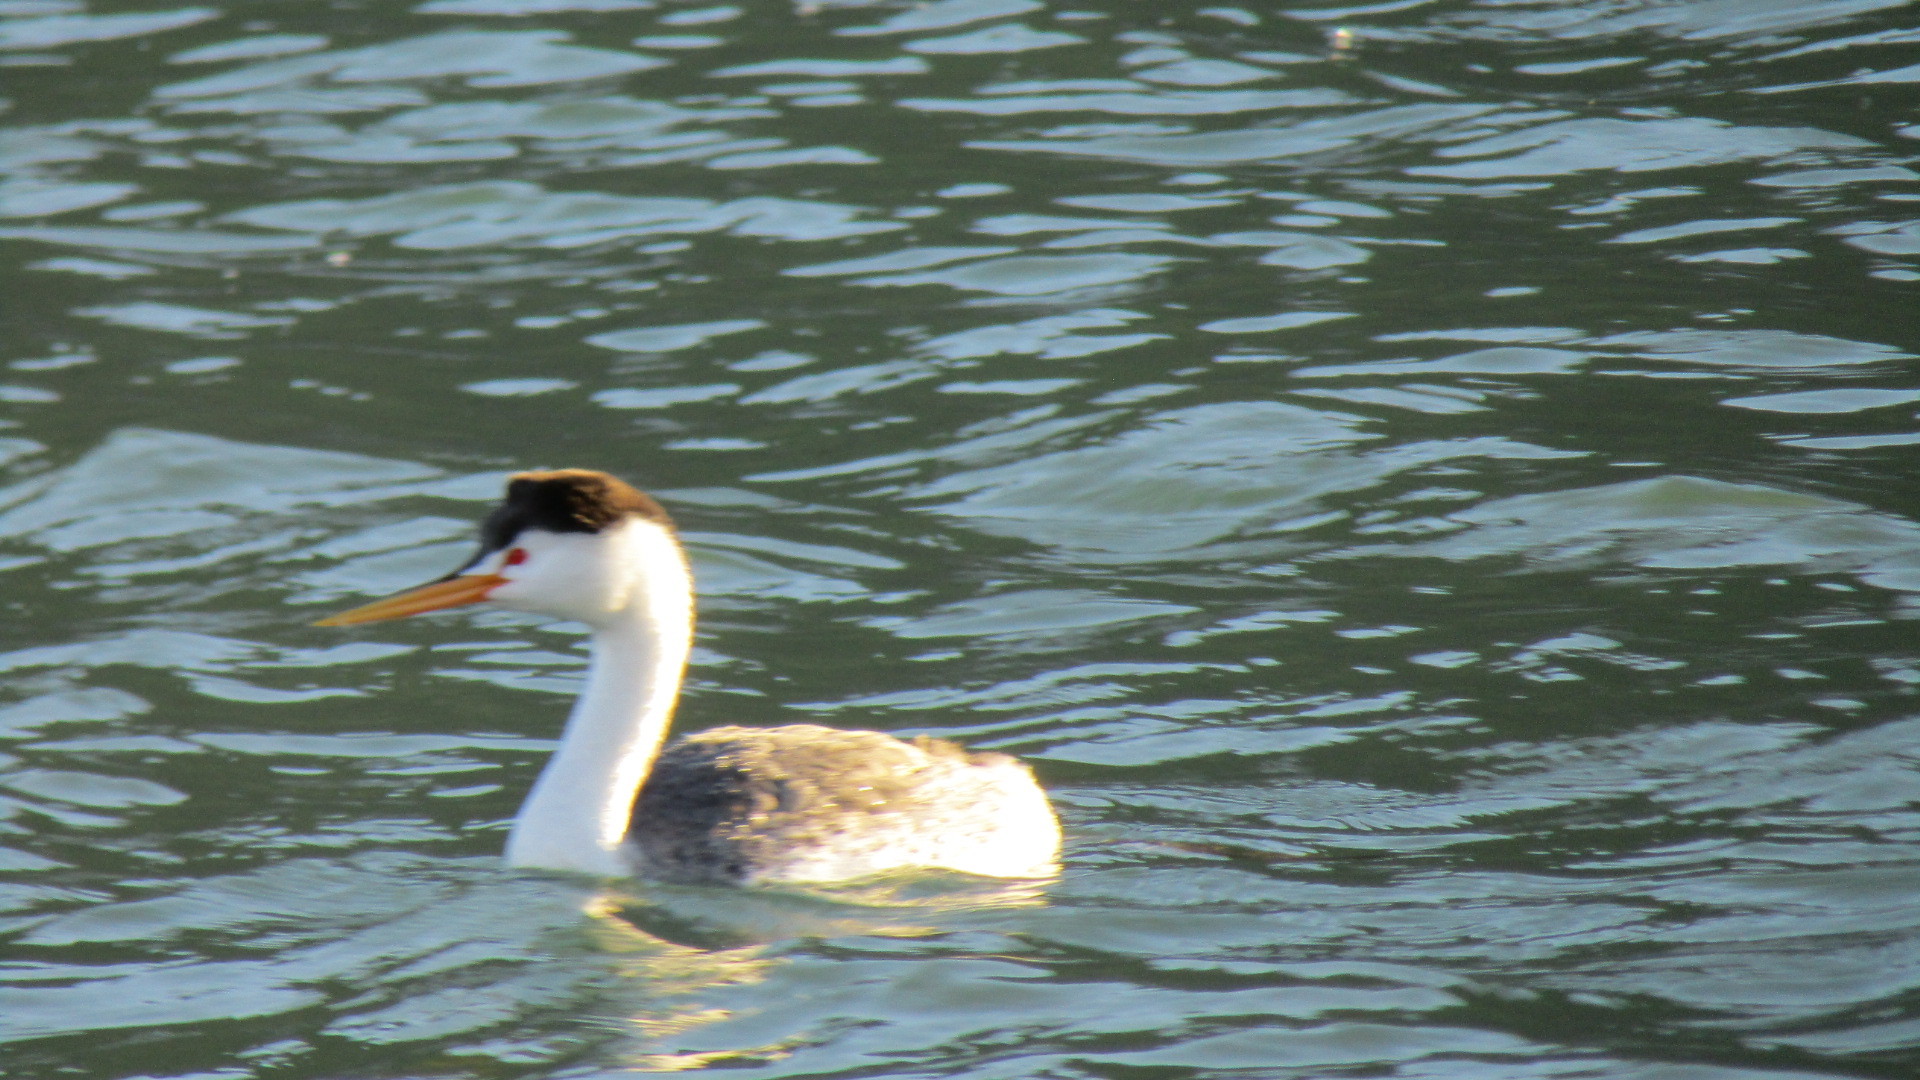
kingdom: Animalia
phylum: Chordata
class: Aves
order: Podicipediformes
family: Podicipedidae
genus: Aechmophorus
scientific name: Aechmophorus clarkii
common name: Clark's grebe
